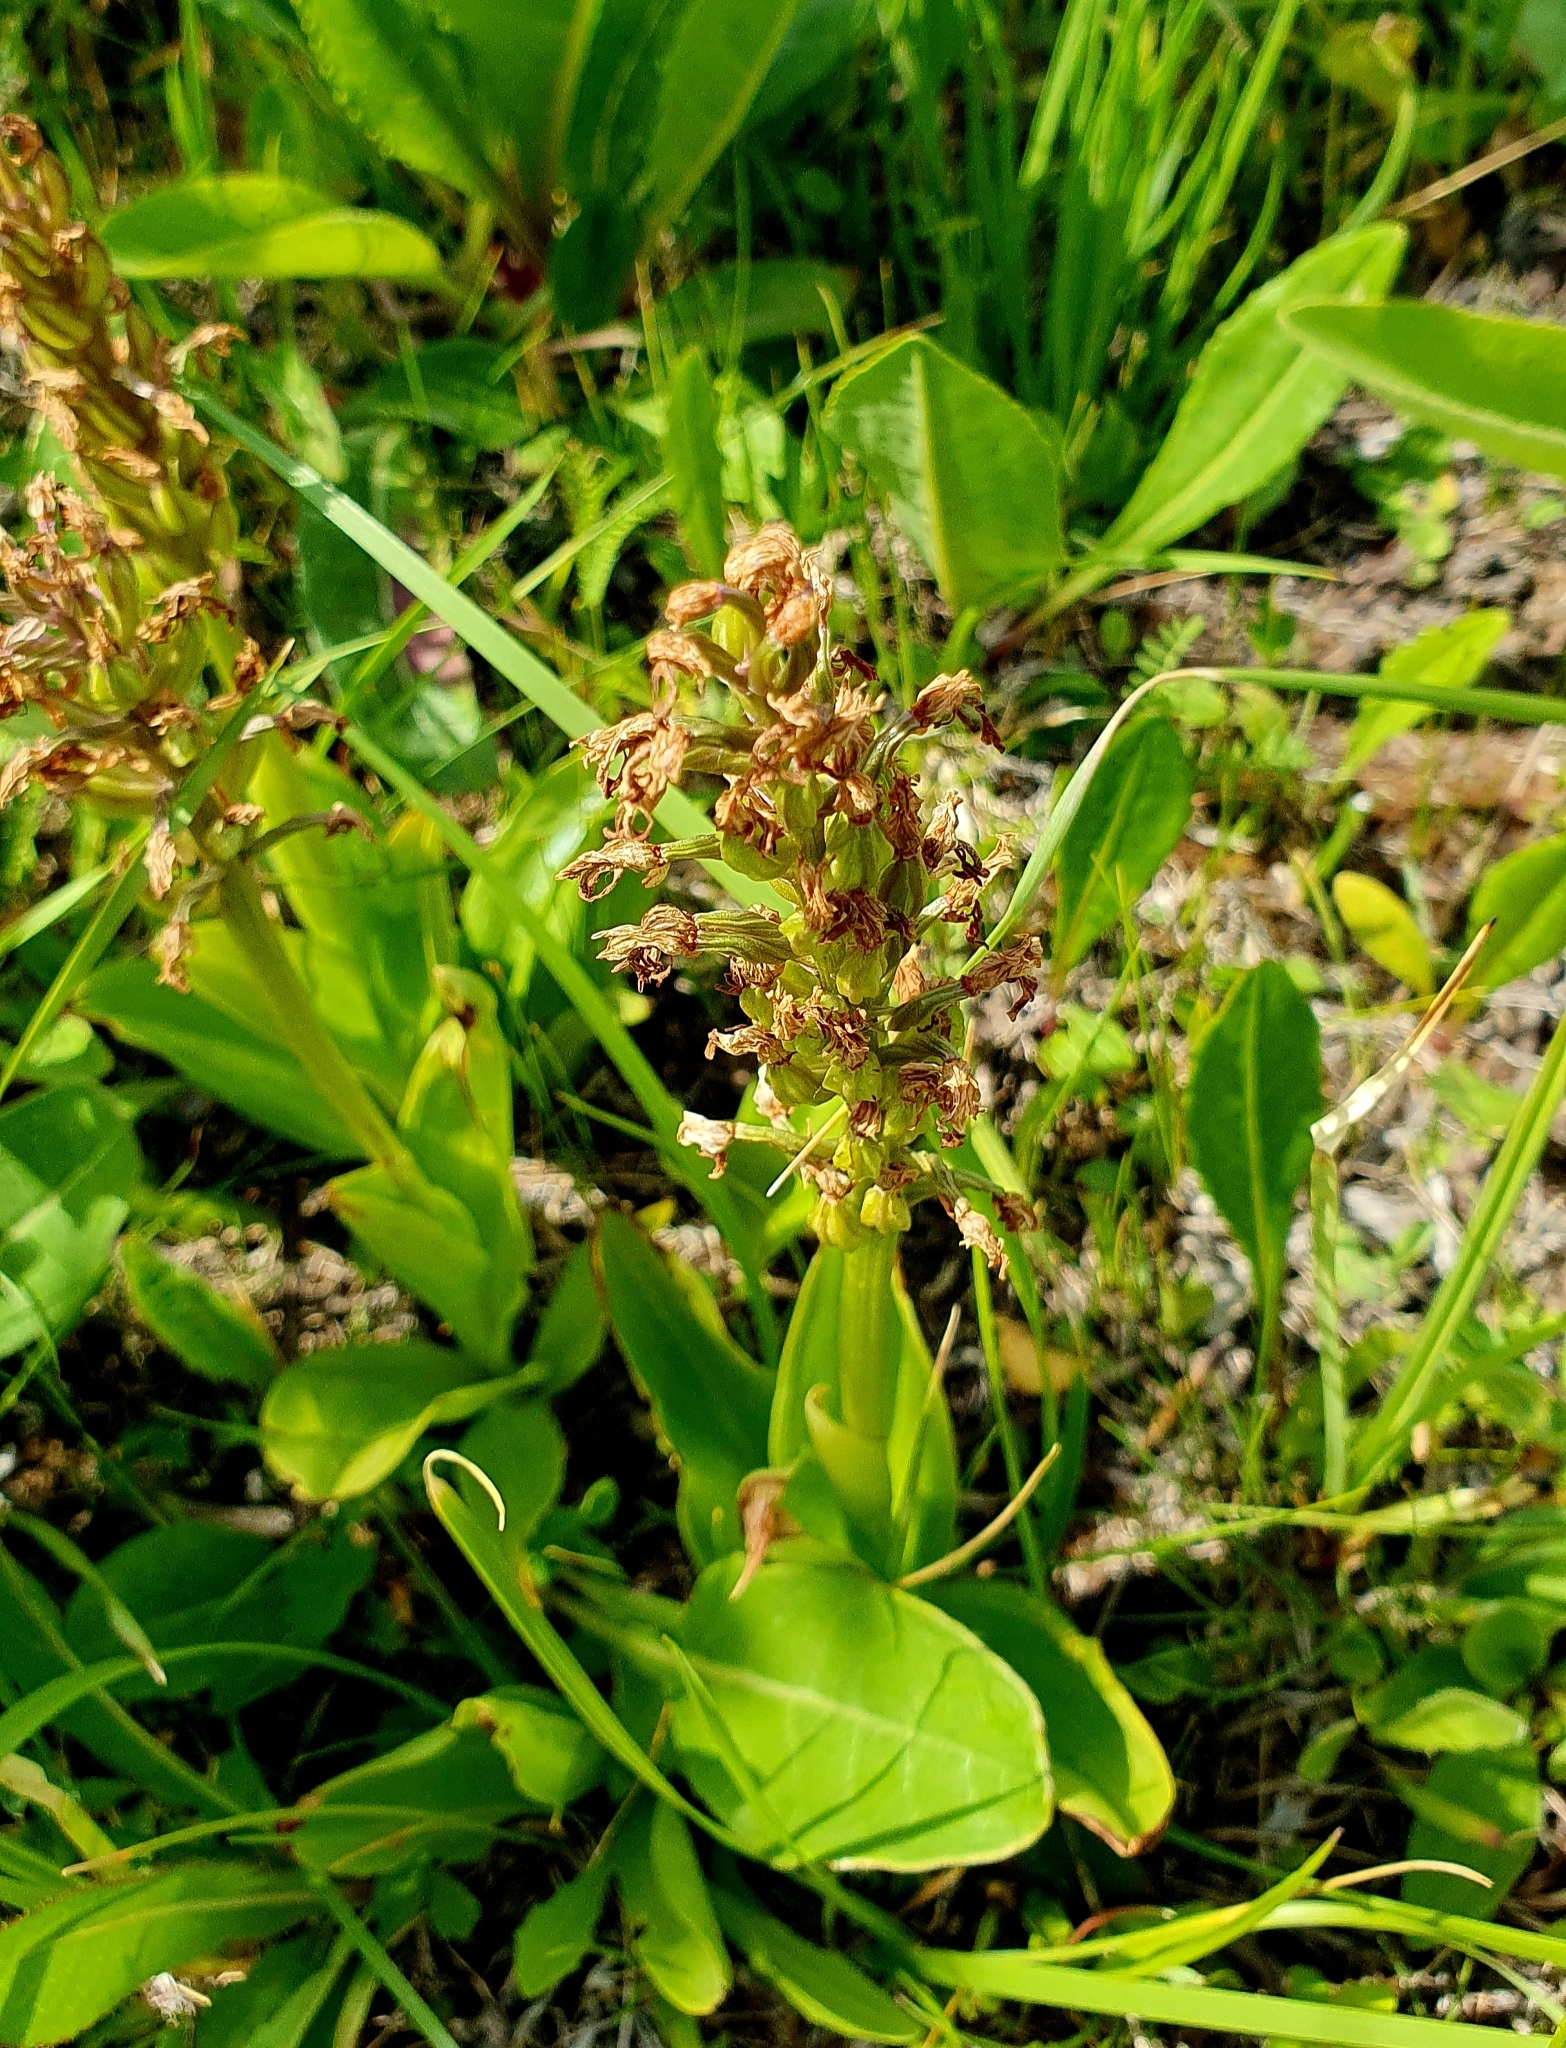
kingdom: Plantae
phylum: Tracheophyta
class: Liliopsida
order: Asparagales
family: Orchidaceae
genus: Orchis
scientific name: Orchis militaris
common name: Military orchid
